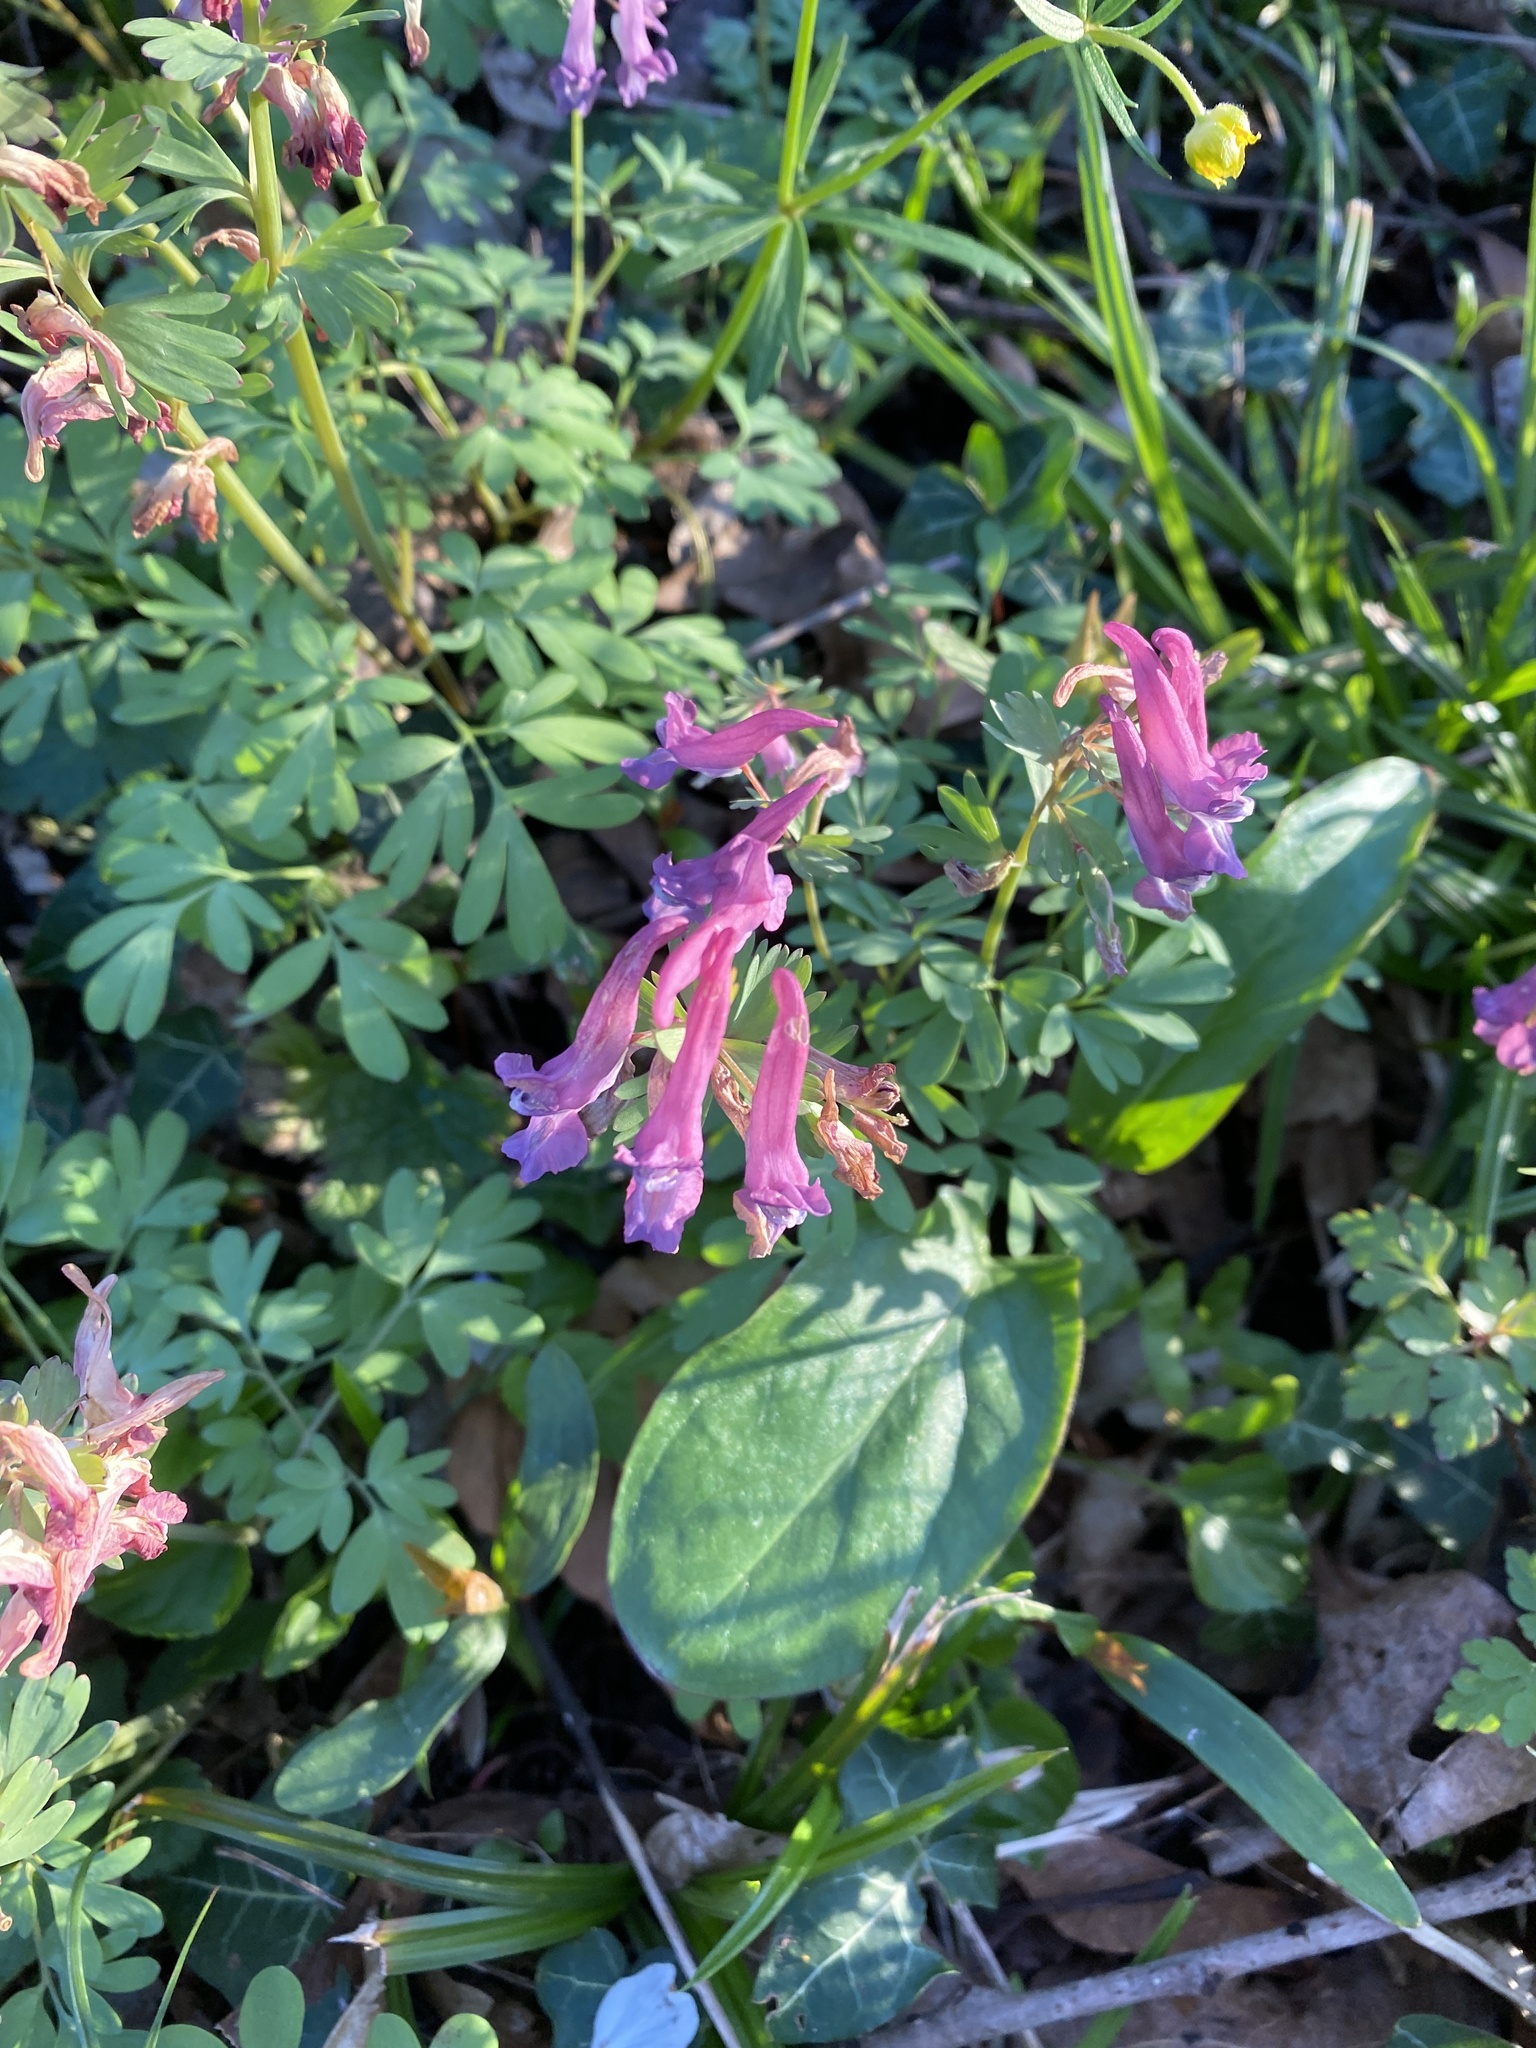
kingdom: Plantae
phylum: Tracheophyta
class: Magnoliopsida
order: Ranunculales
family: Papaveraceae
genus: Corydalis
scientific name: Corydalis solida
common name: Bird-in-a-bush
